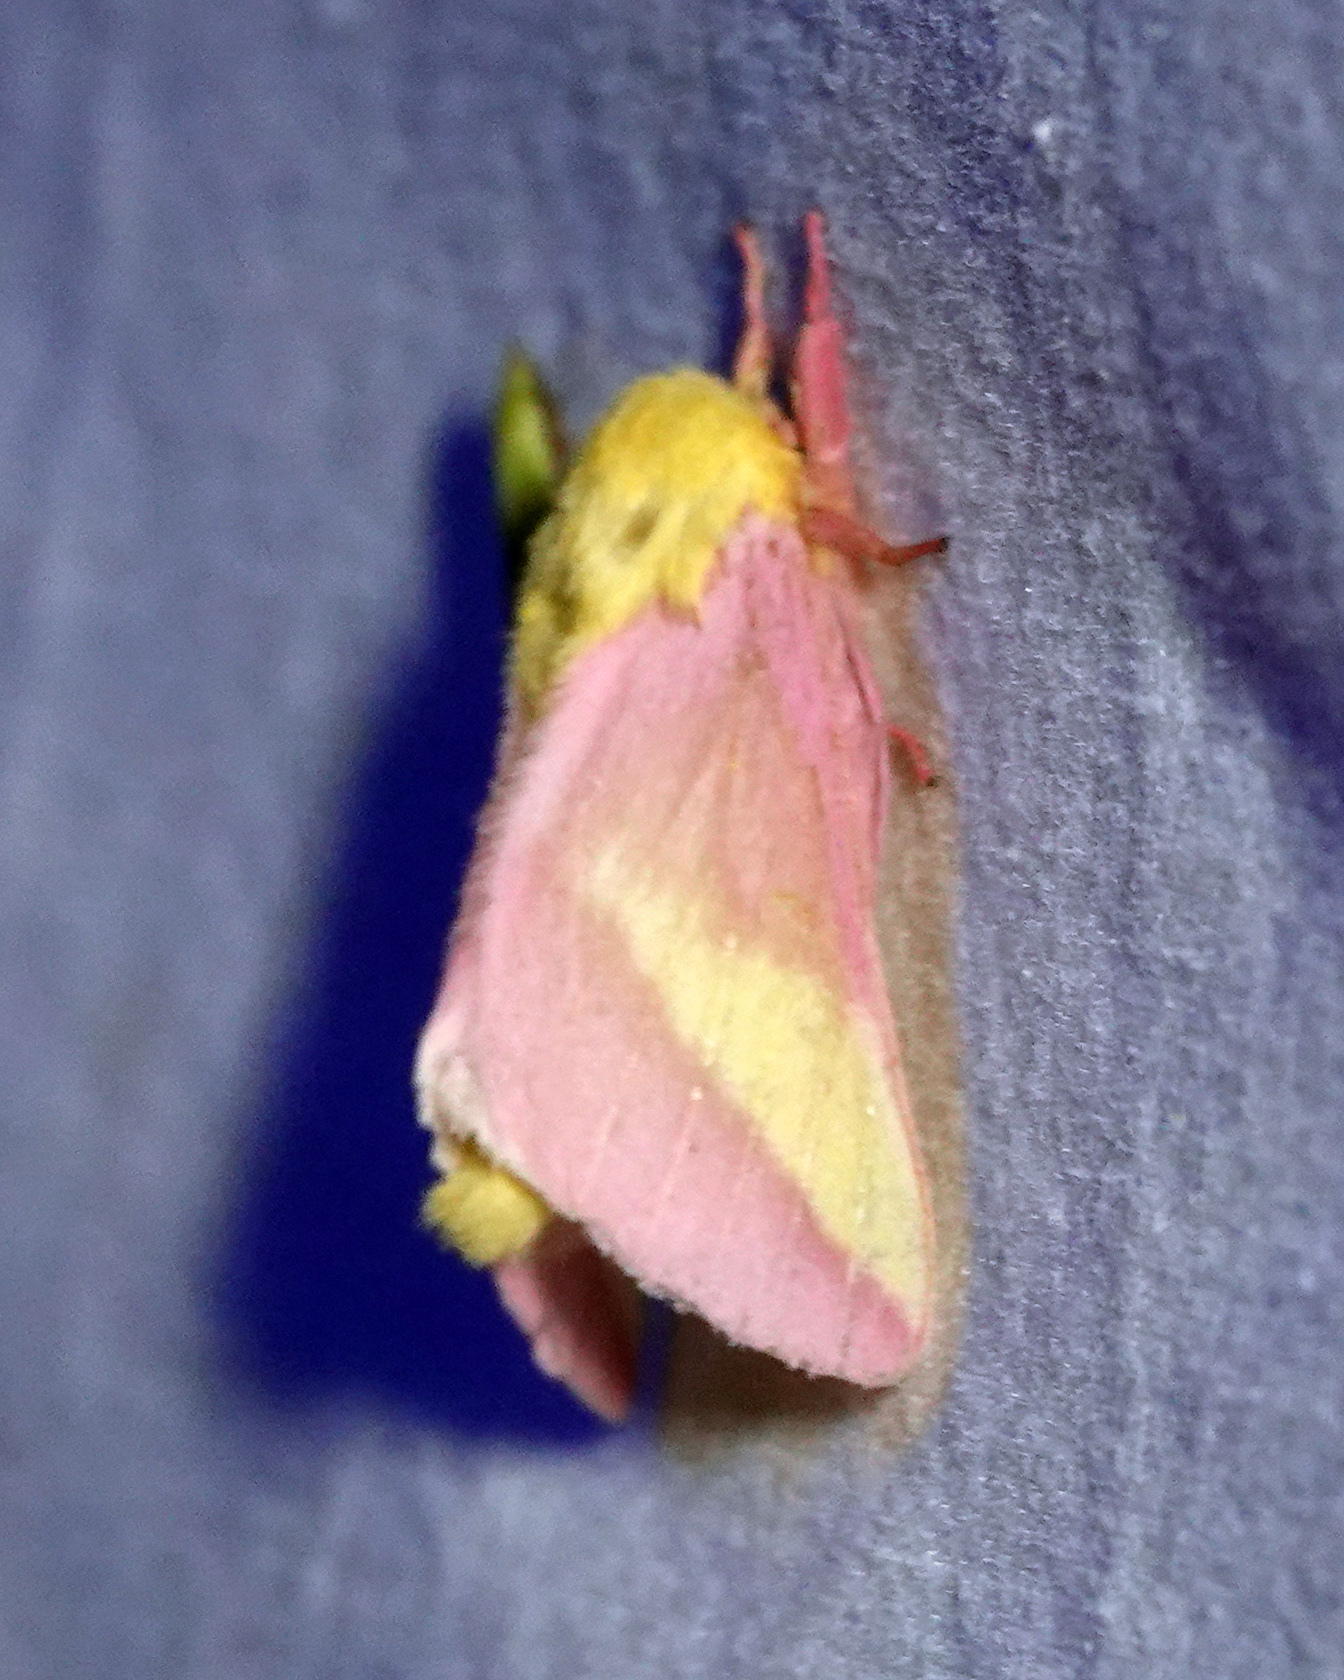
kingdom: Animalia
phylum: Arthropoda
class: Insecta
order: Lepidoptera
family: Saturniidae
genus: Dryocampa
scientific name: Dryocampa rubicunda
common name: Rosy maple moth
